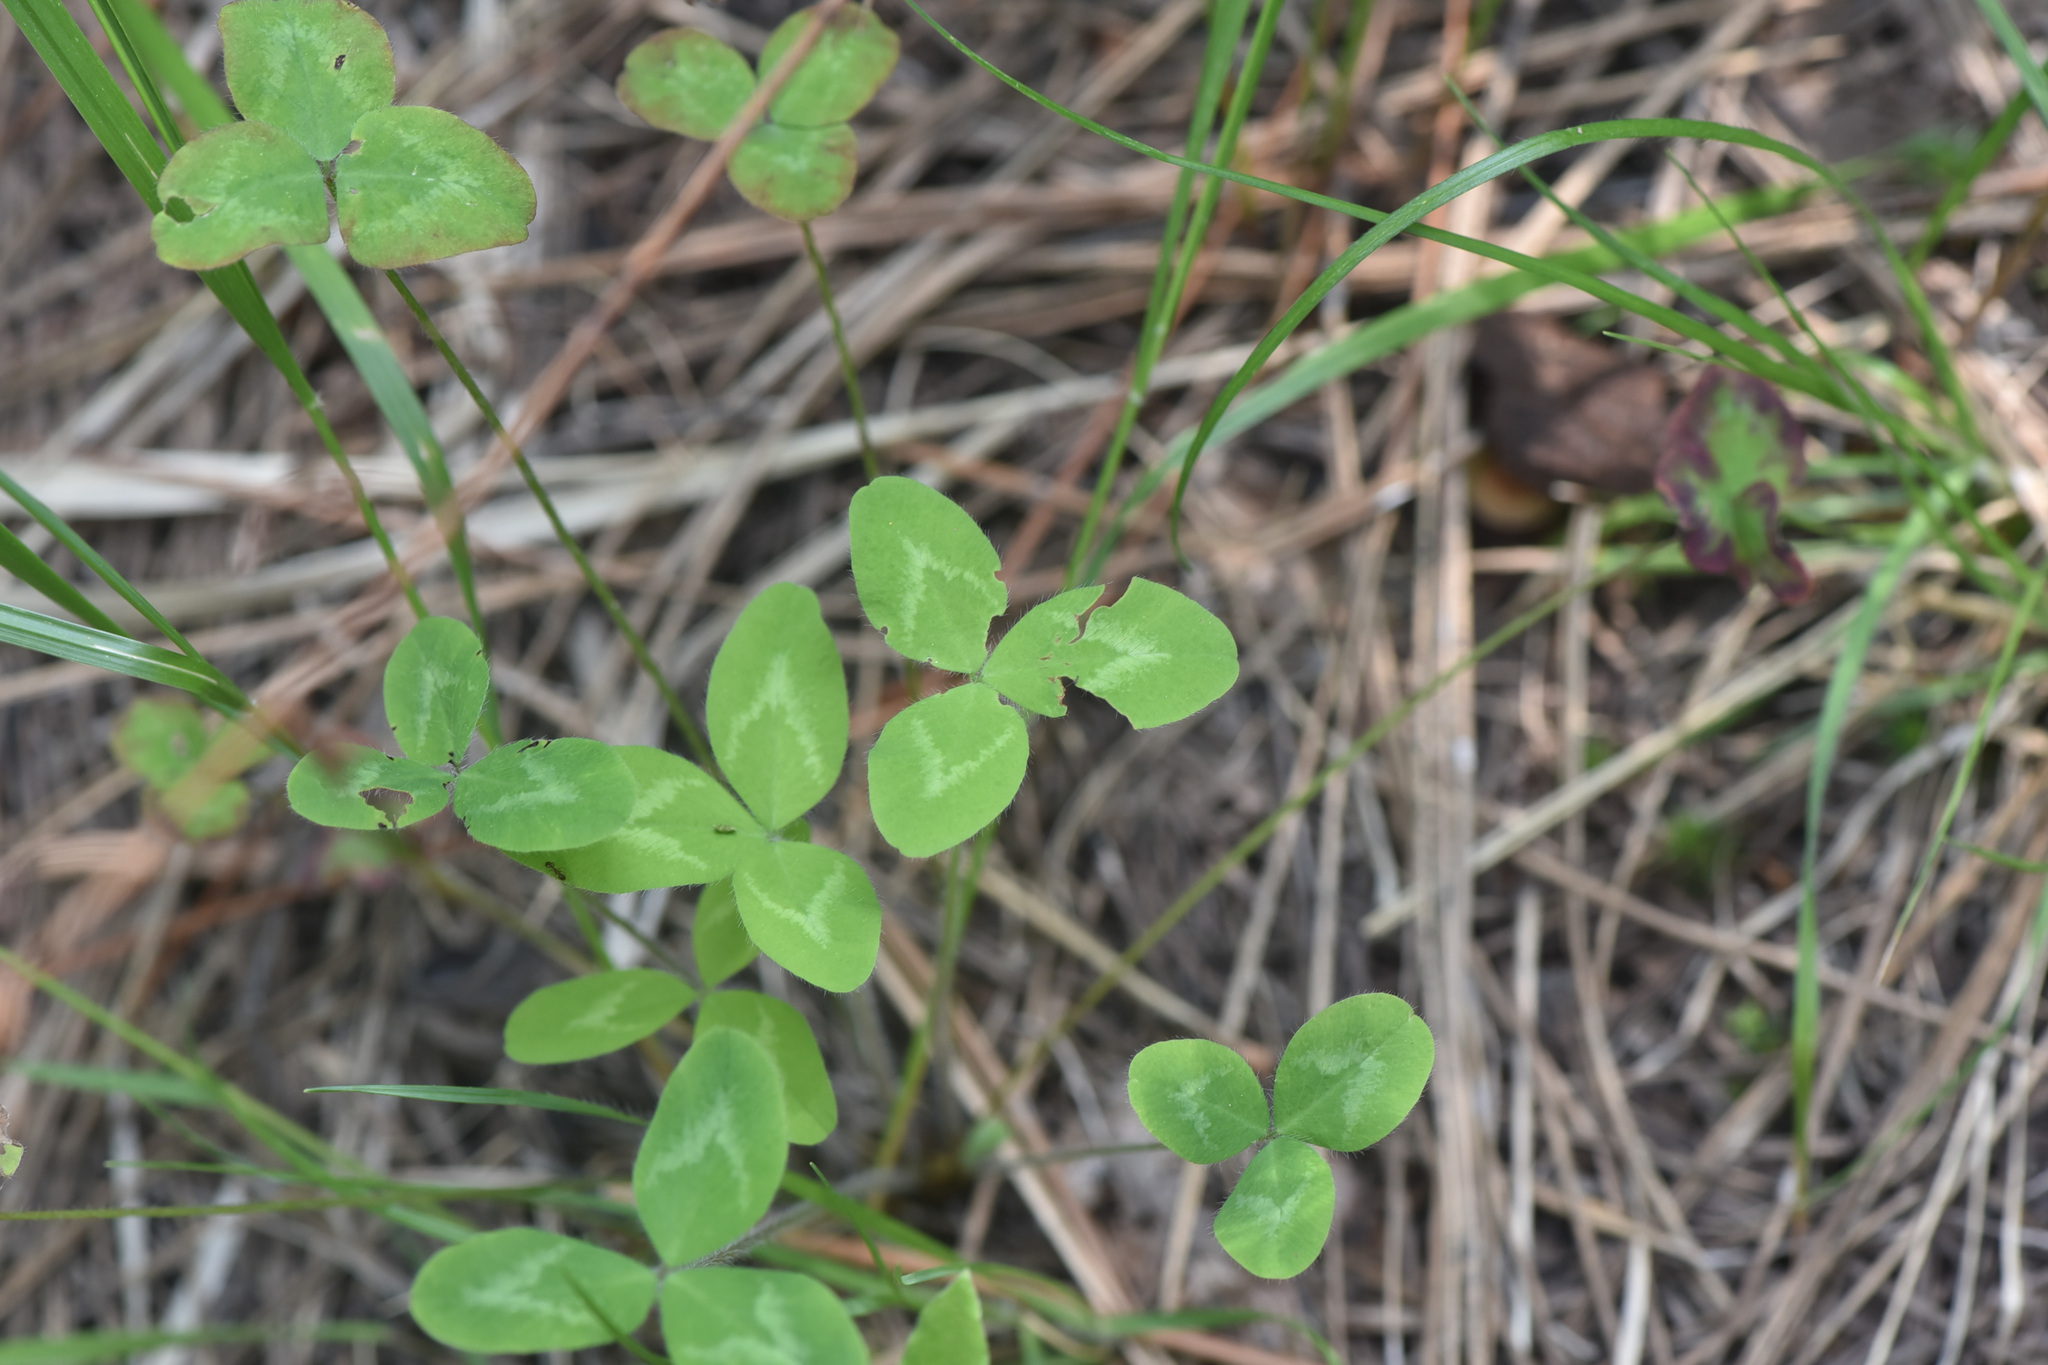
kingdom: Plantae
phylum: Tracheophyta
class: Magnoliopsida
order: Fabales
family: Fabaceae
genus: Trifolium
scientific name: Trifolium pratense
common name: Red clover
